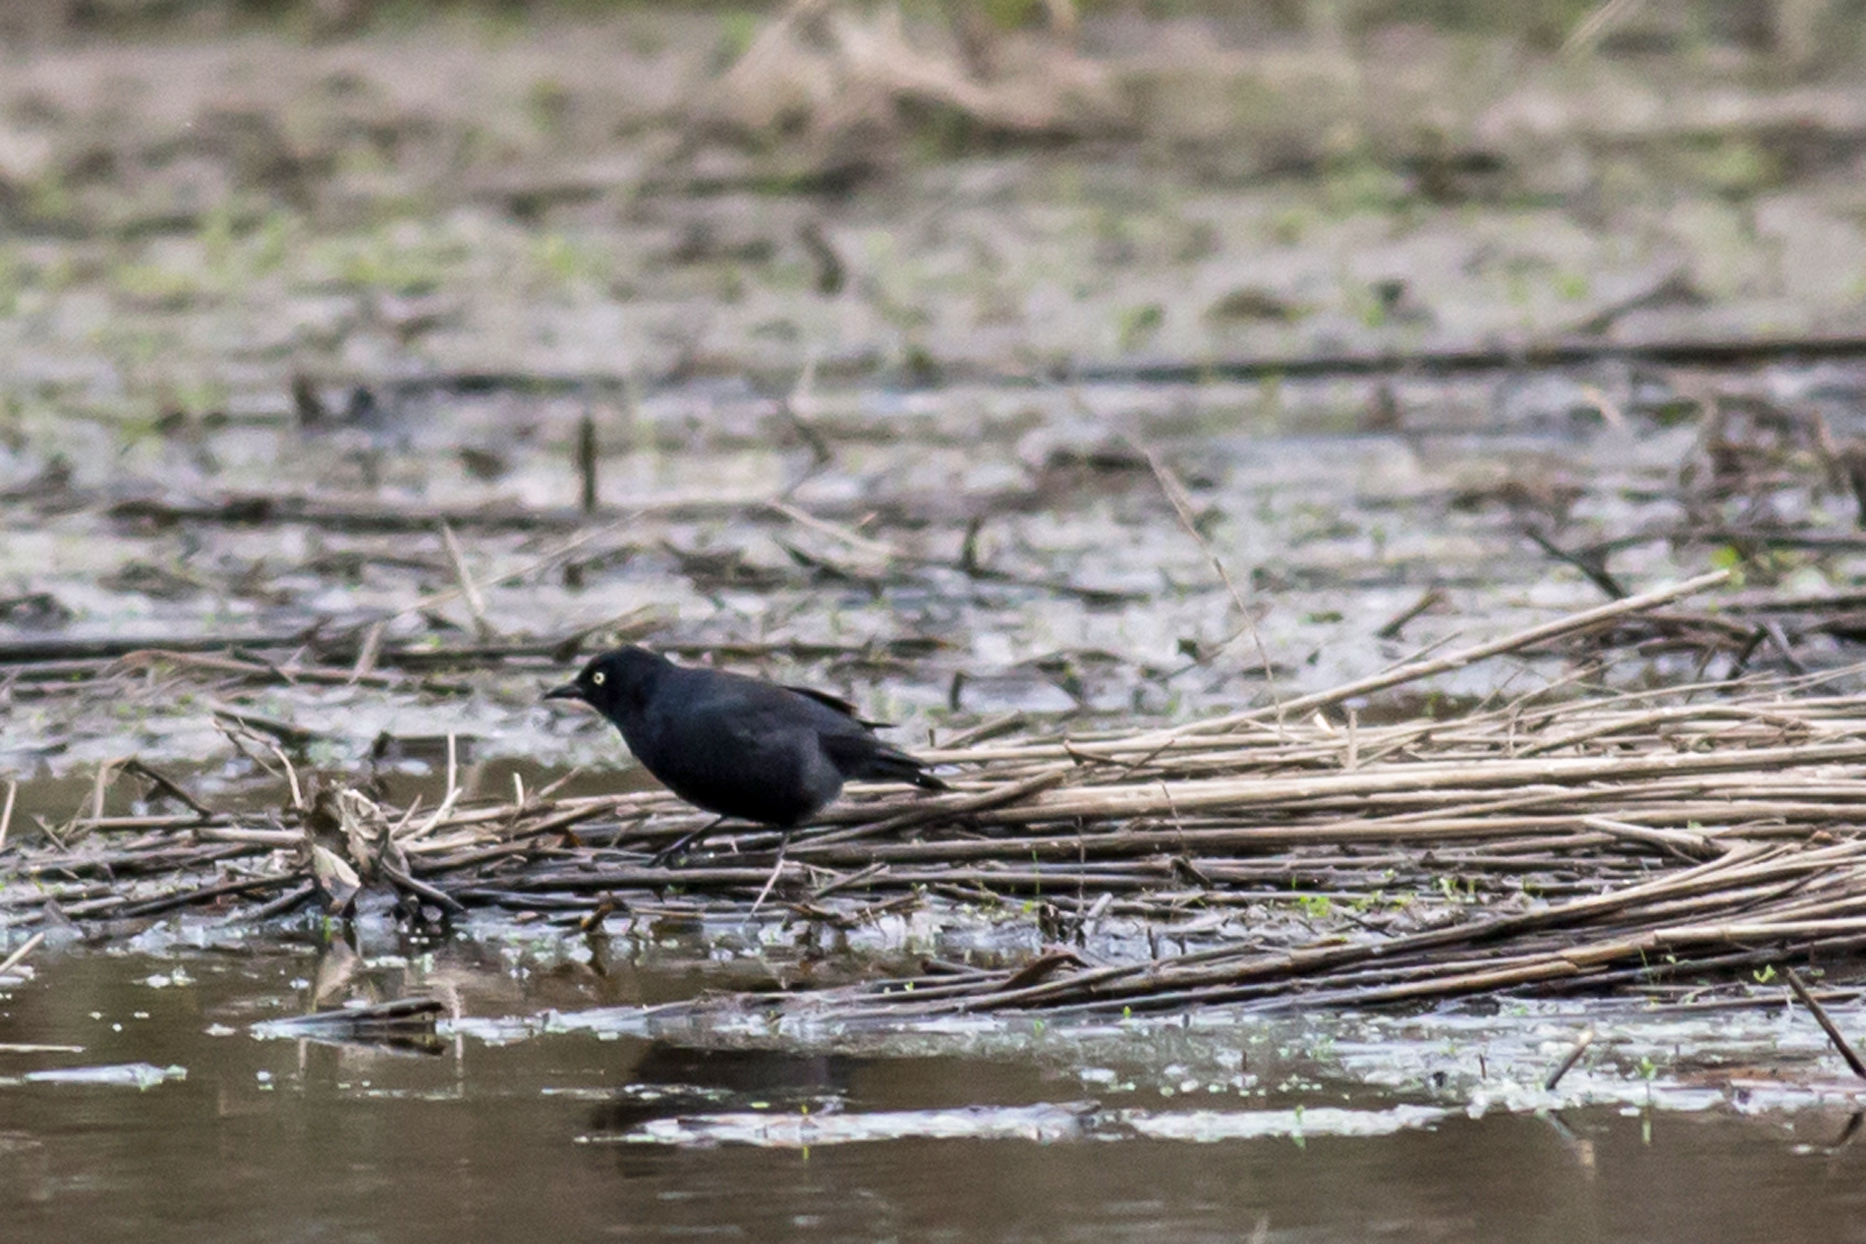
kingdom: Animalia
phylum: Chordata
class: Aves
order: Passeriformes
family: Icteridae
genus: Euphagus
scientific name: Euphagus carolinus
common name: Rusty blackbird
